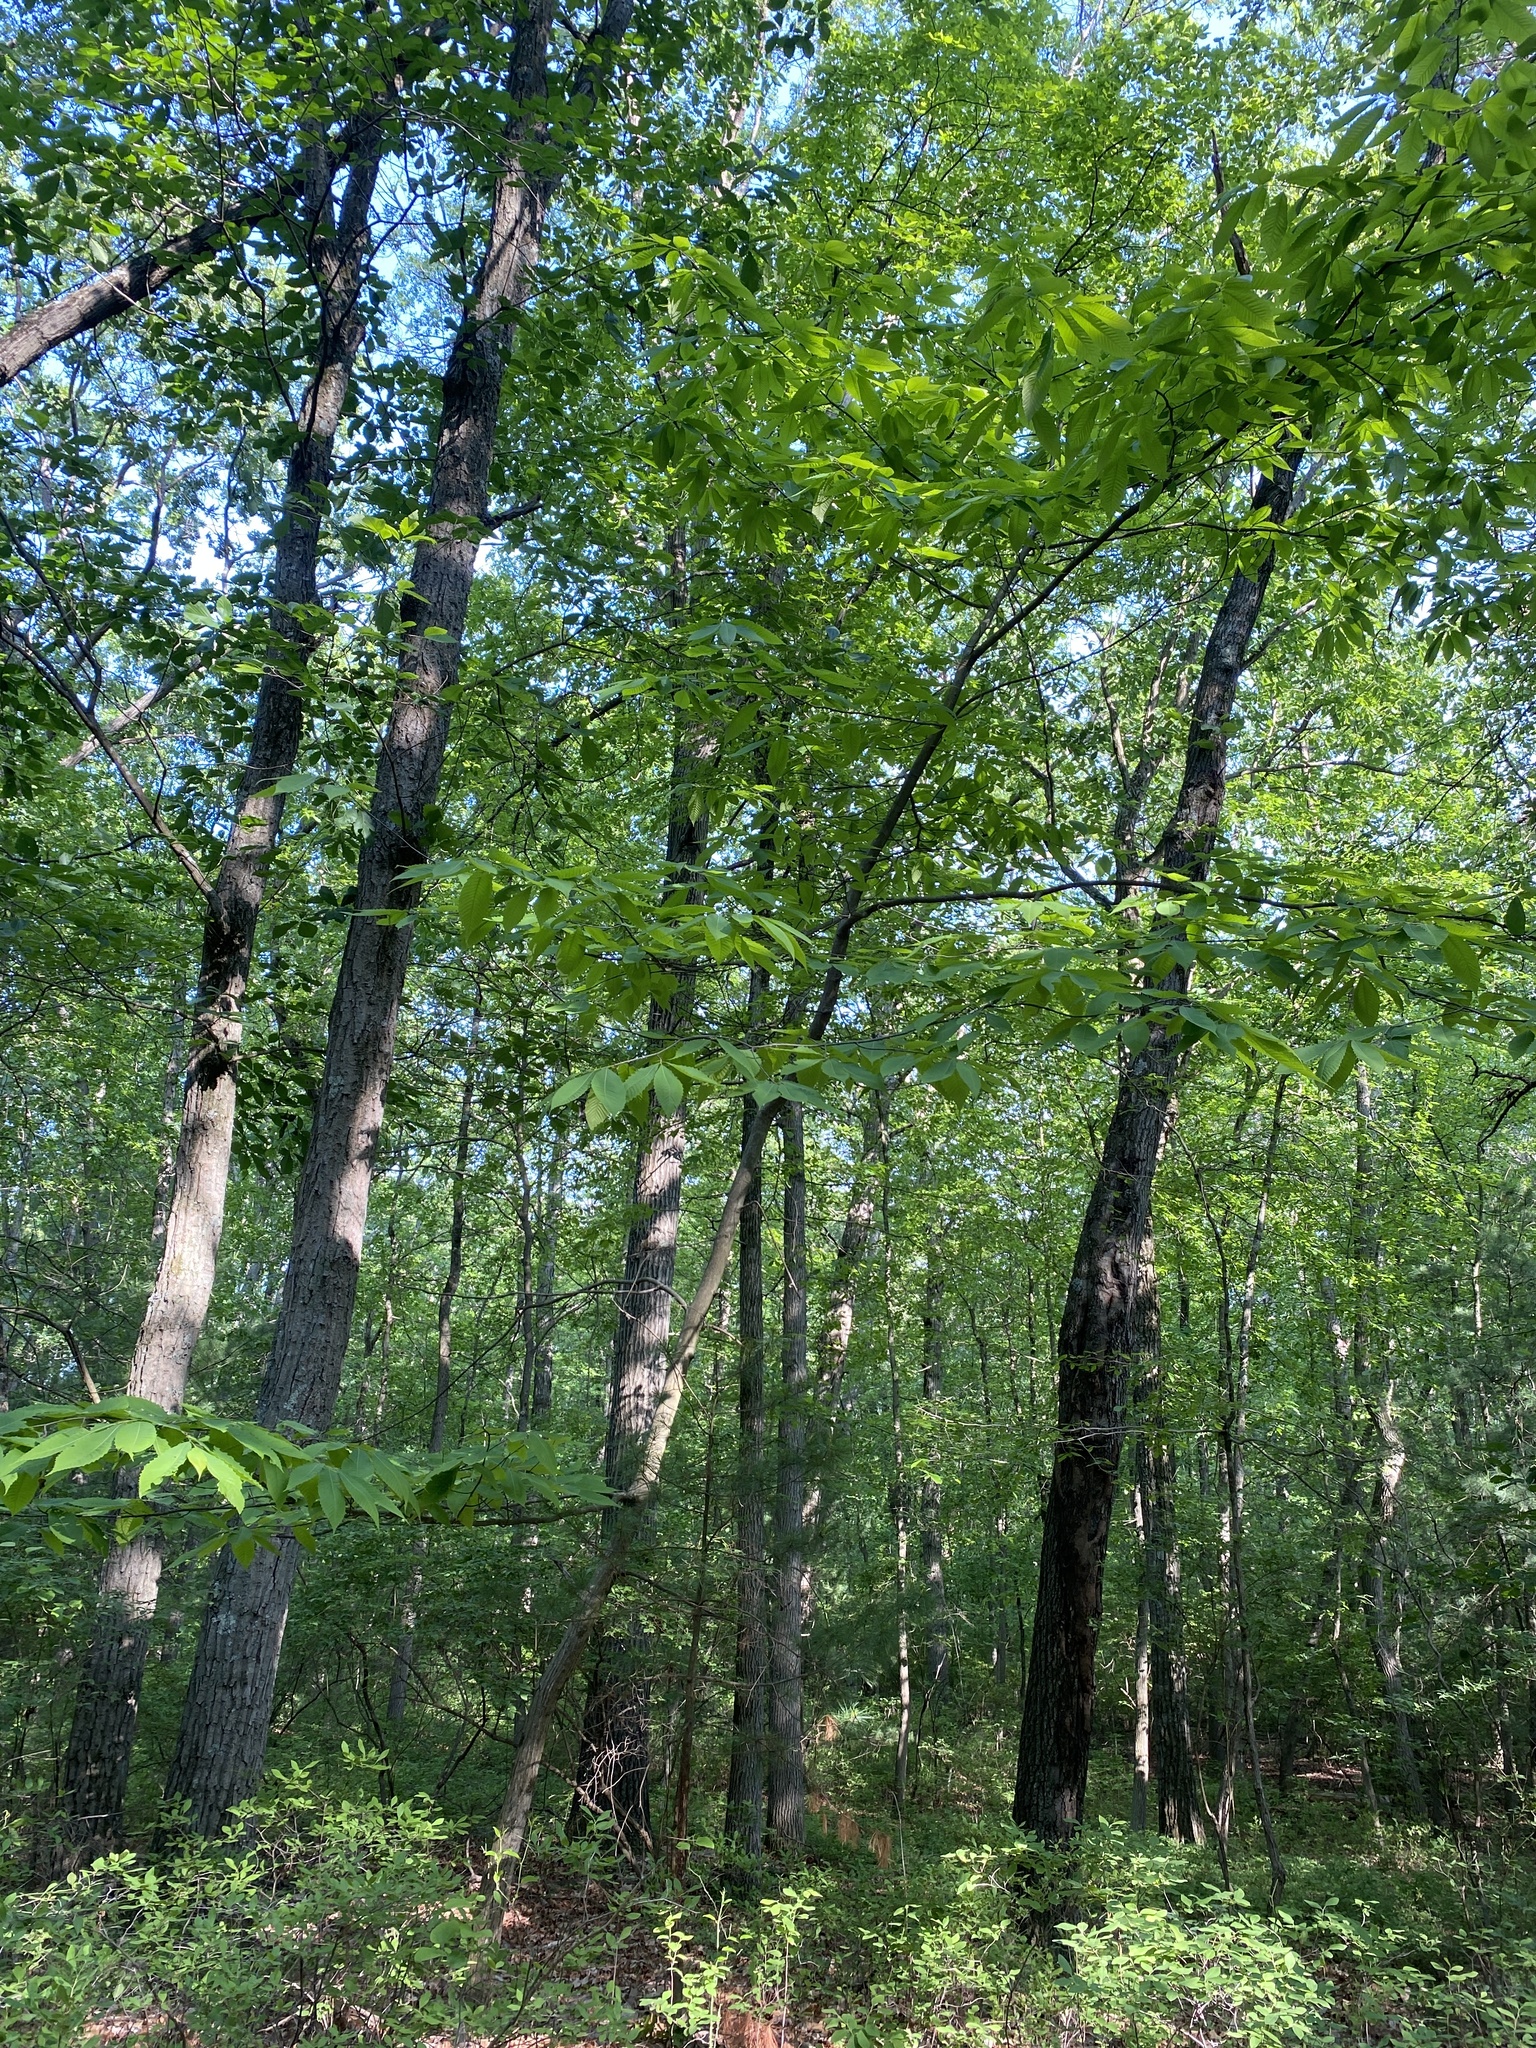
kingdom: Plantae
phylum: Tracheophyta
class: Magnoliopsida
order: Fagales
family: Fagaceae
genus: Castanea
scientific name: Castanea dentata
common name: American chestnut
